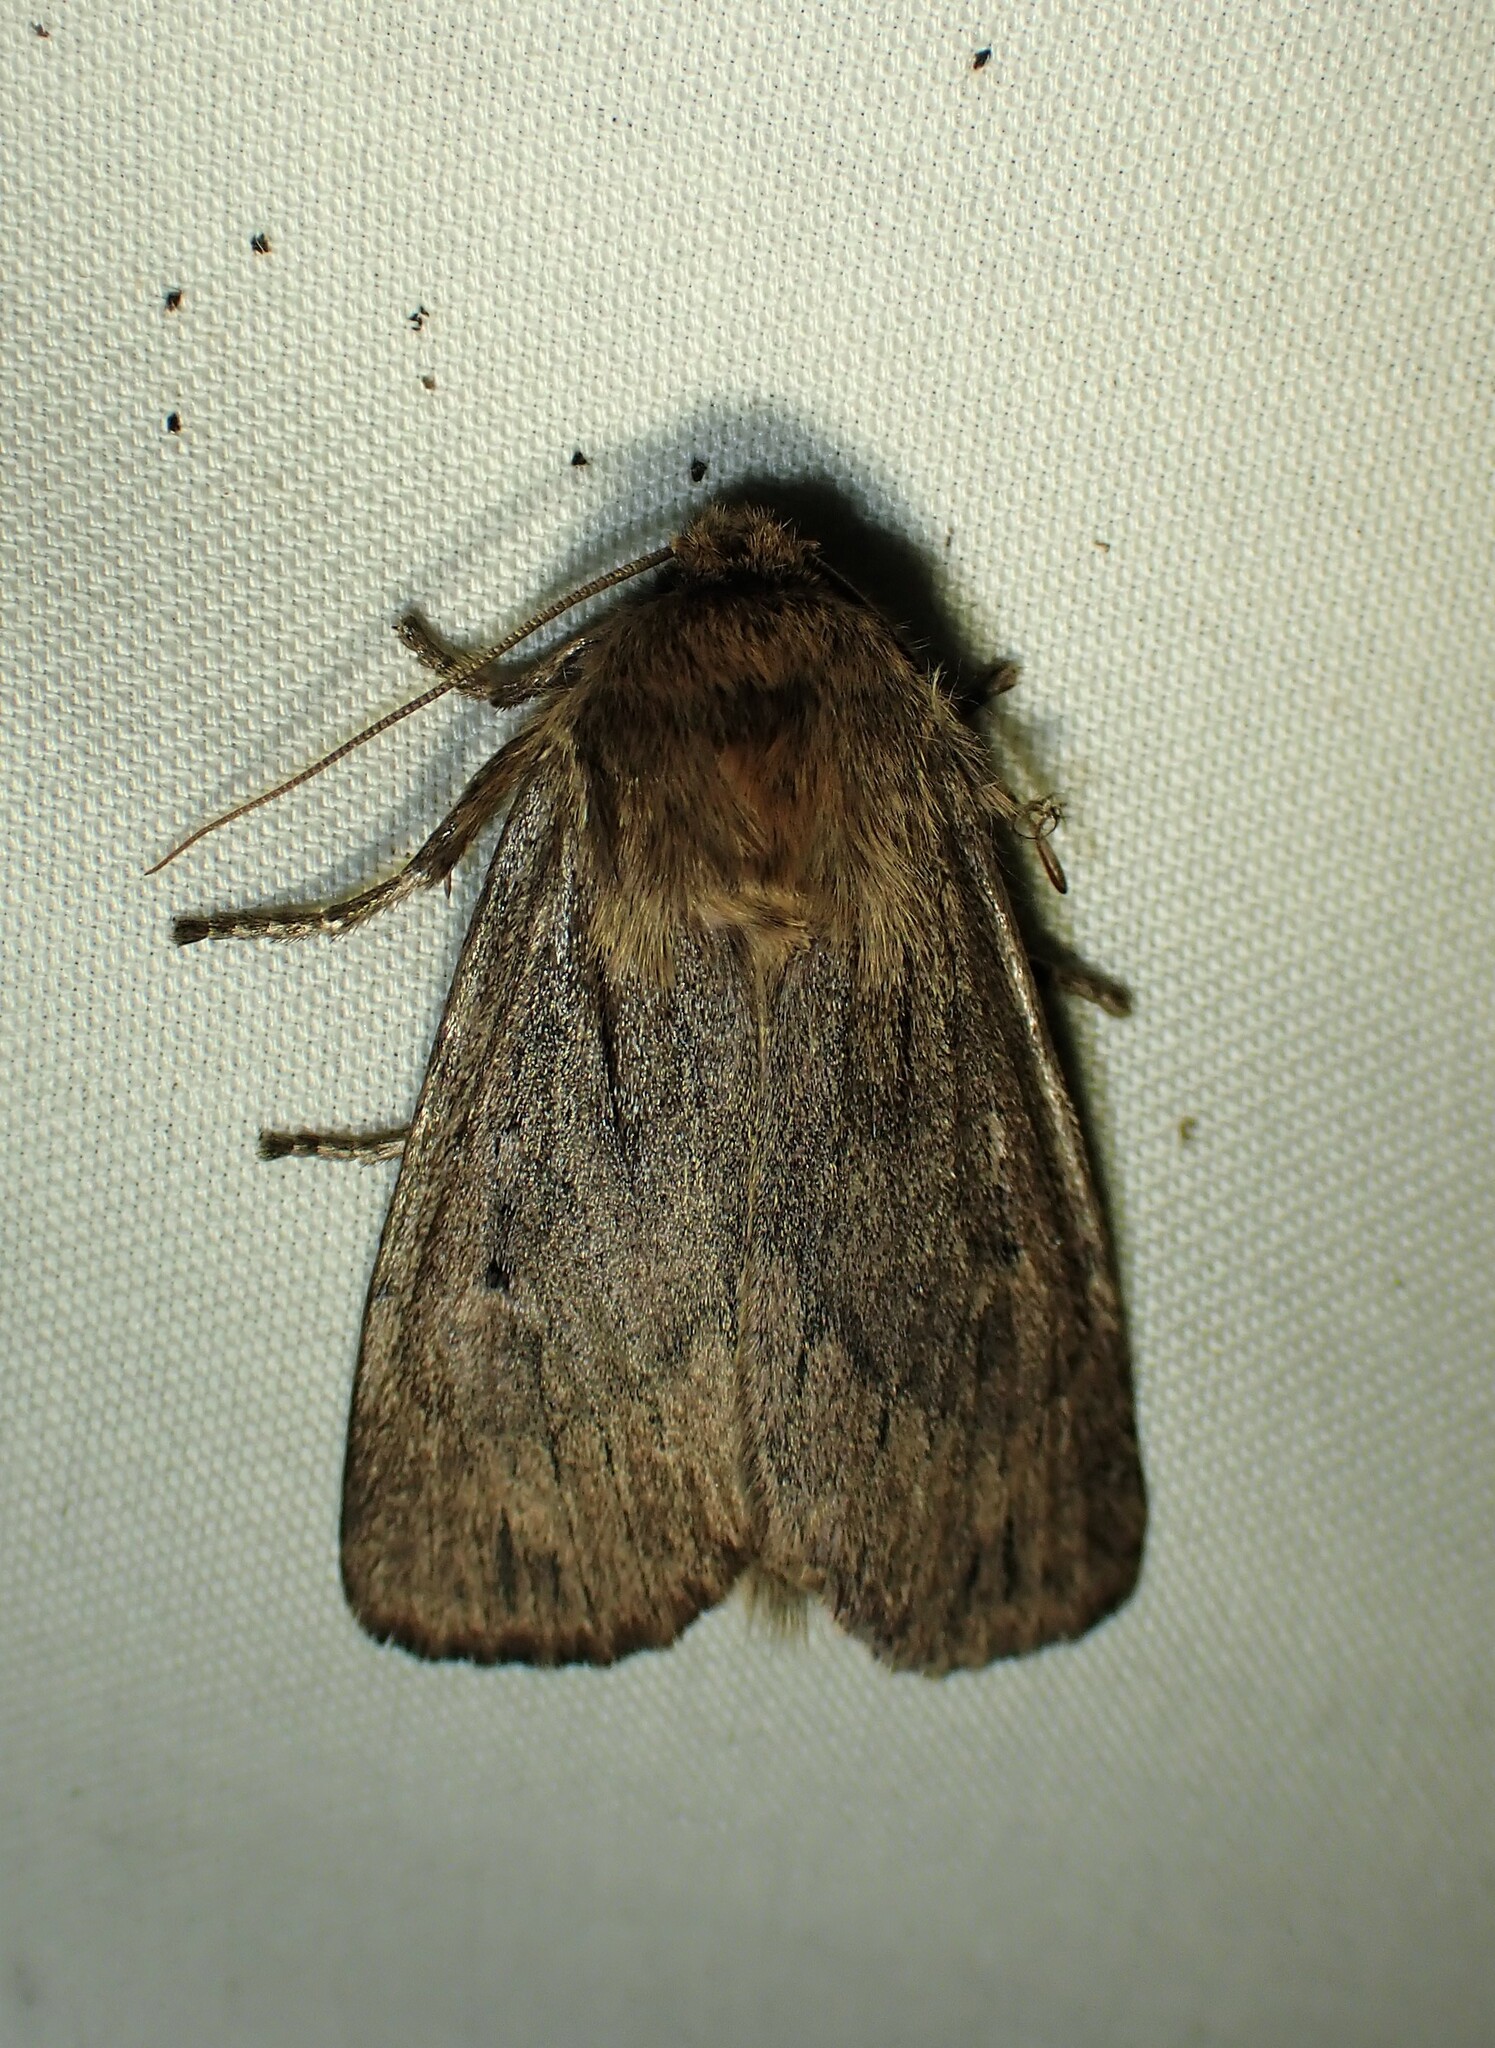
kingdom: Animalia
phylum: Arthropoda
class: Insecta
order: Lepidoptera
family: Noctuidae
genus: Ufeus
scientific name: Ufeus satyricus
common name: Brown satyr moth
